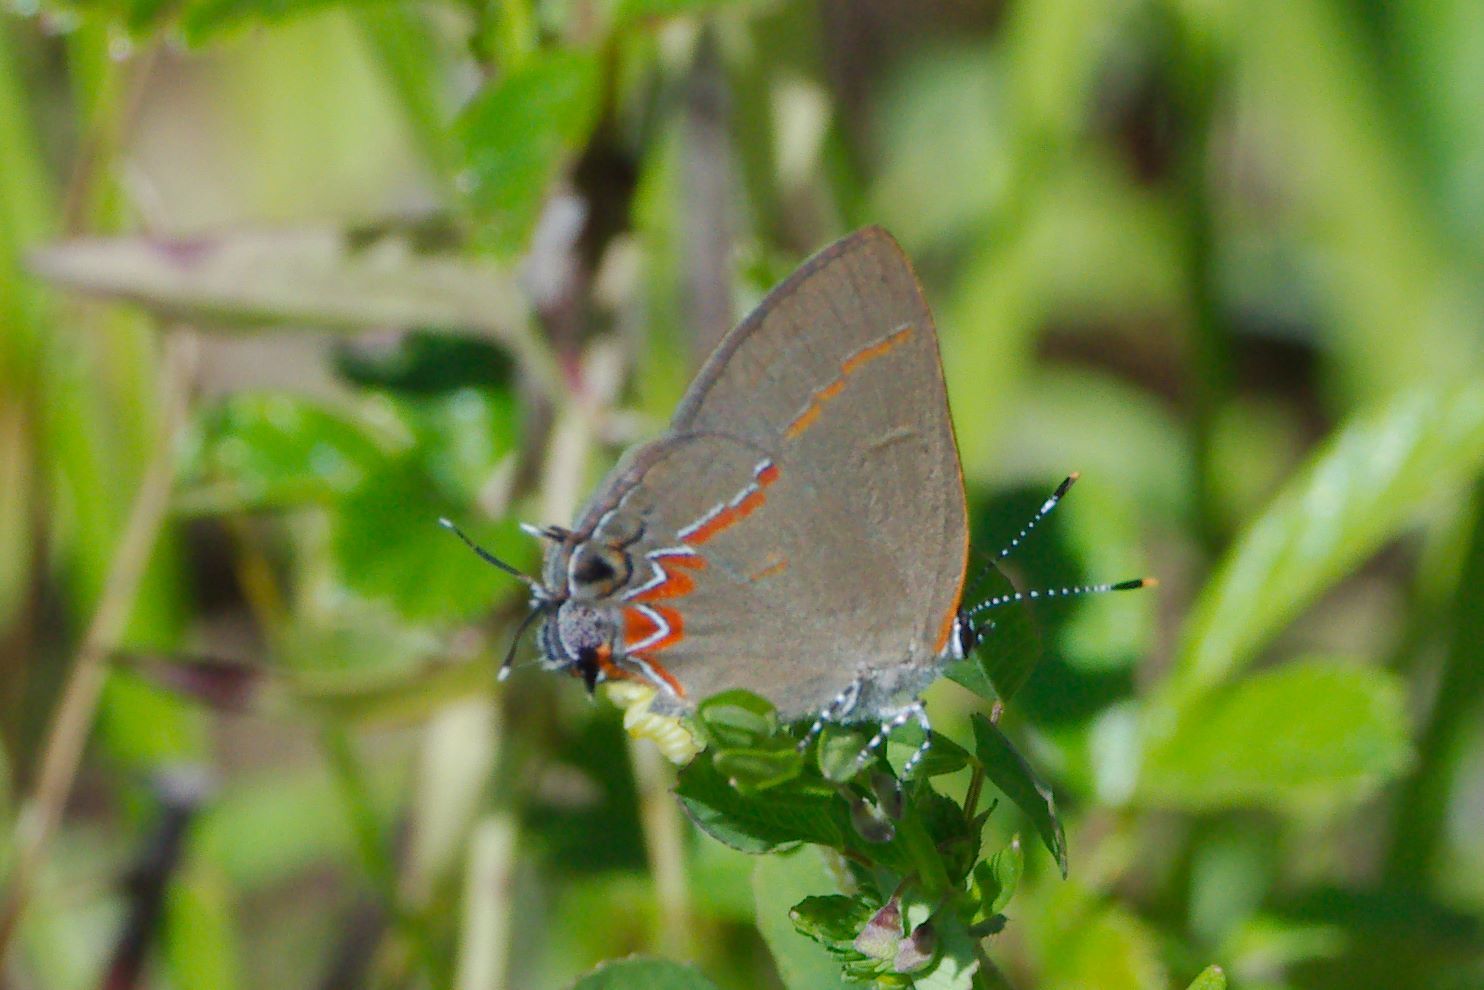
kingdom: Animalia
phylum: Arthropoda
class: Insecta
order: Lepidoptera
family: Lycaenidae
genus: Calycopis
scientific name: Calycopis cecrops
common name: Red-banded hairstreak
